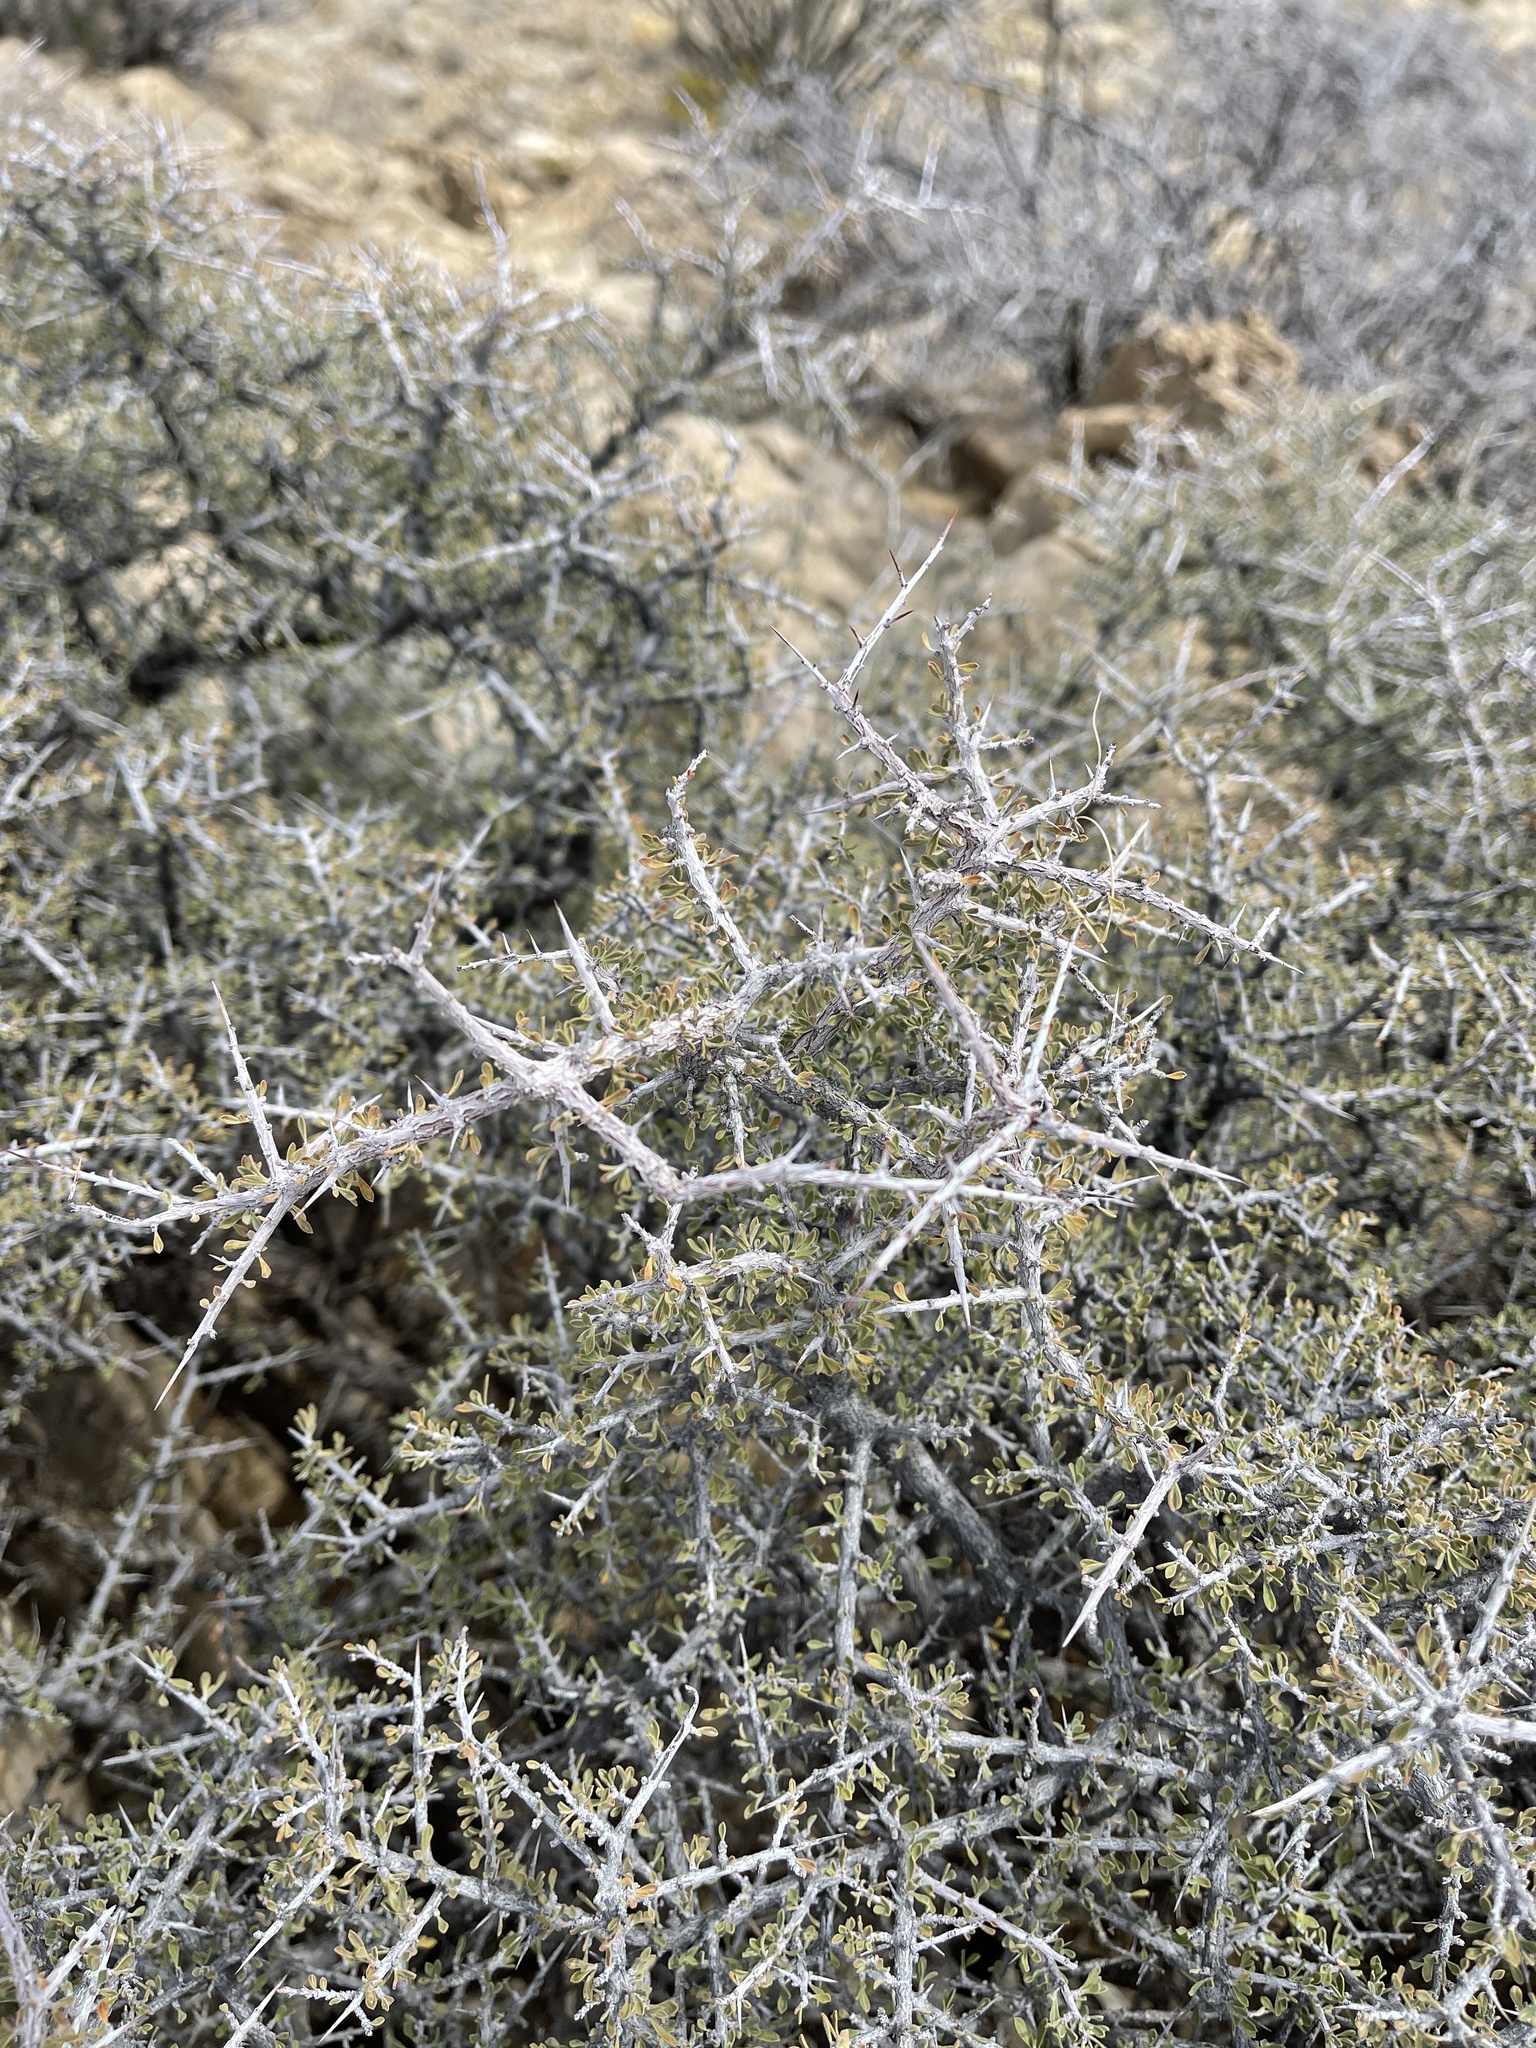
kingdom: Plantae
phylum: Tracheophyta
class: Magnoliopsida
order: Rosales
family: Rhamnaceae
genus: Condalia
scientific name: Condalia warnockii
